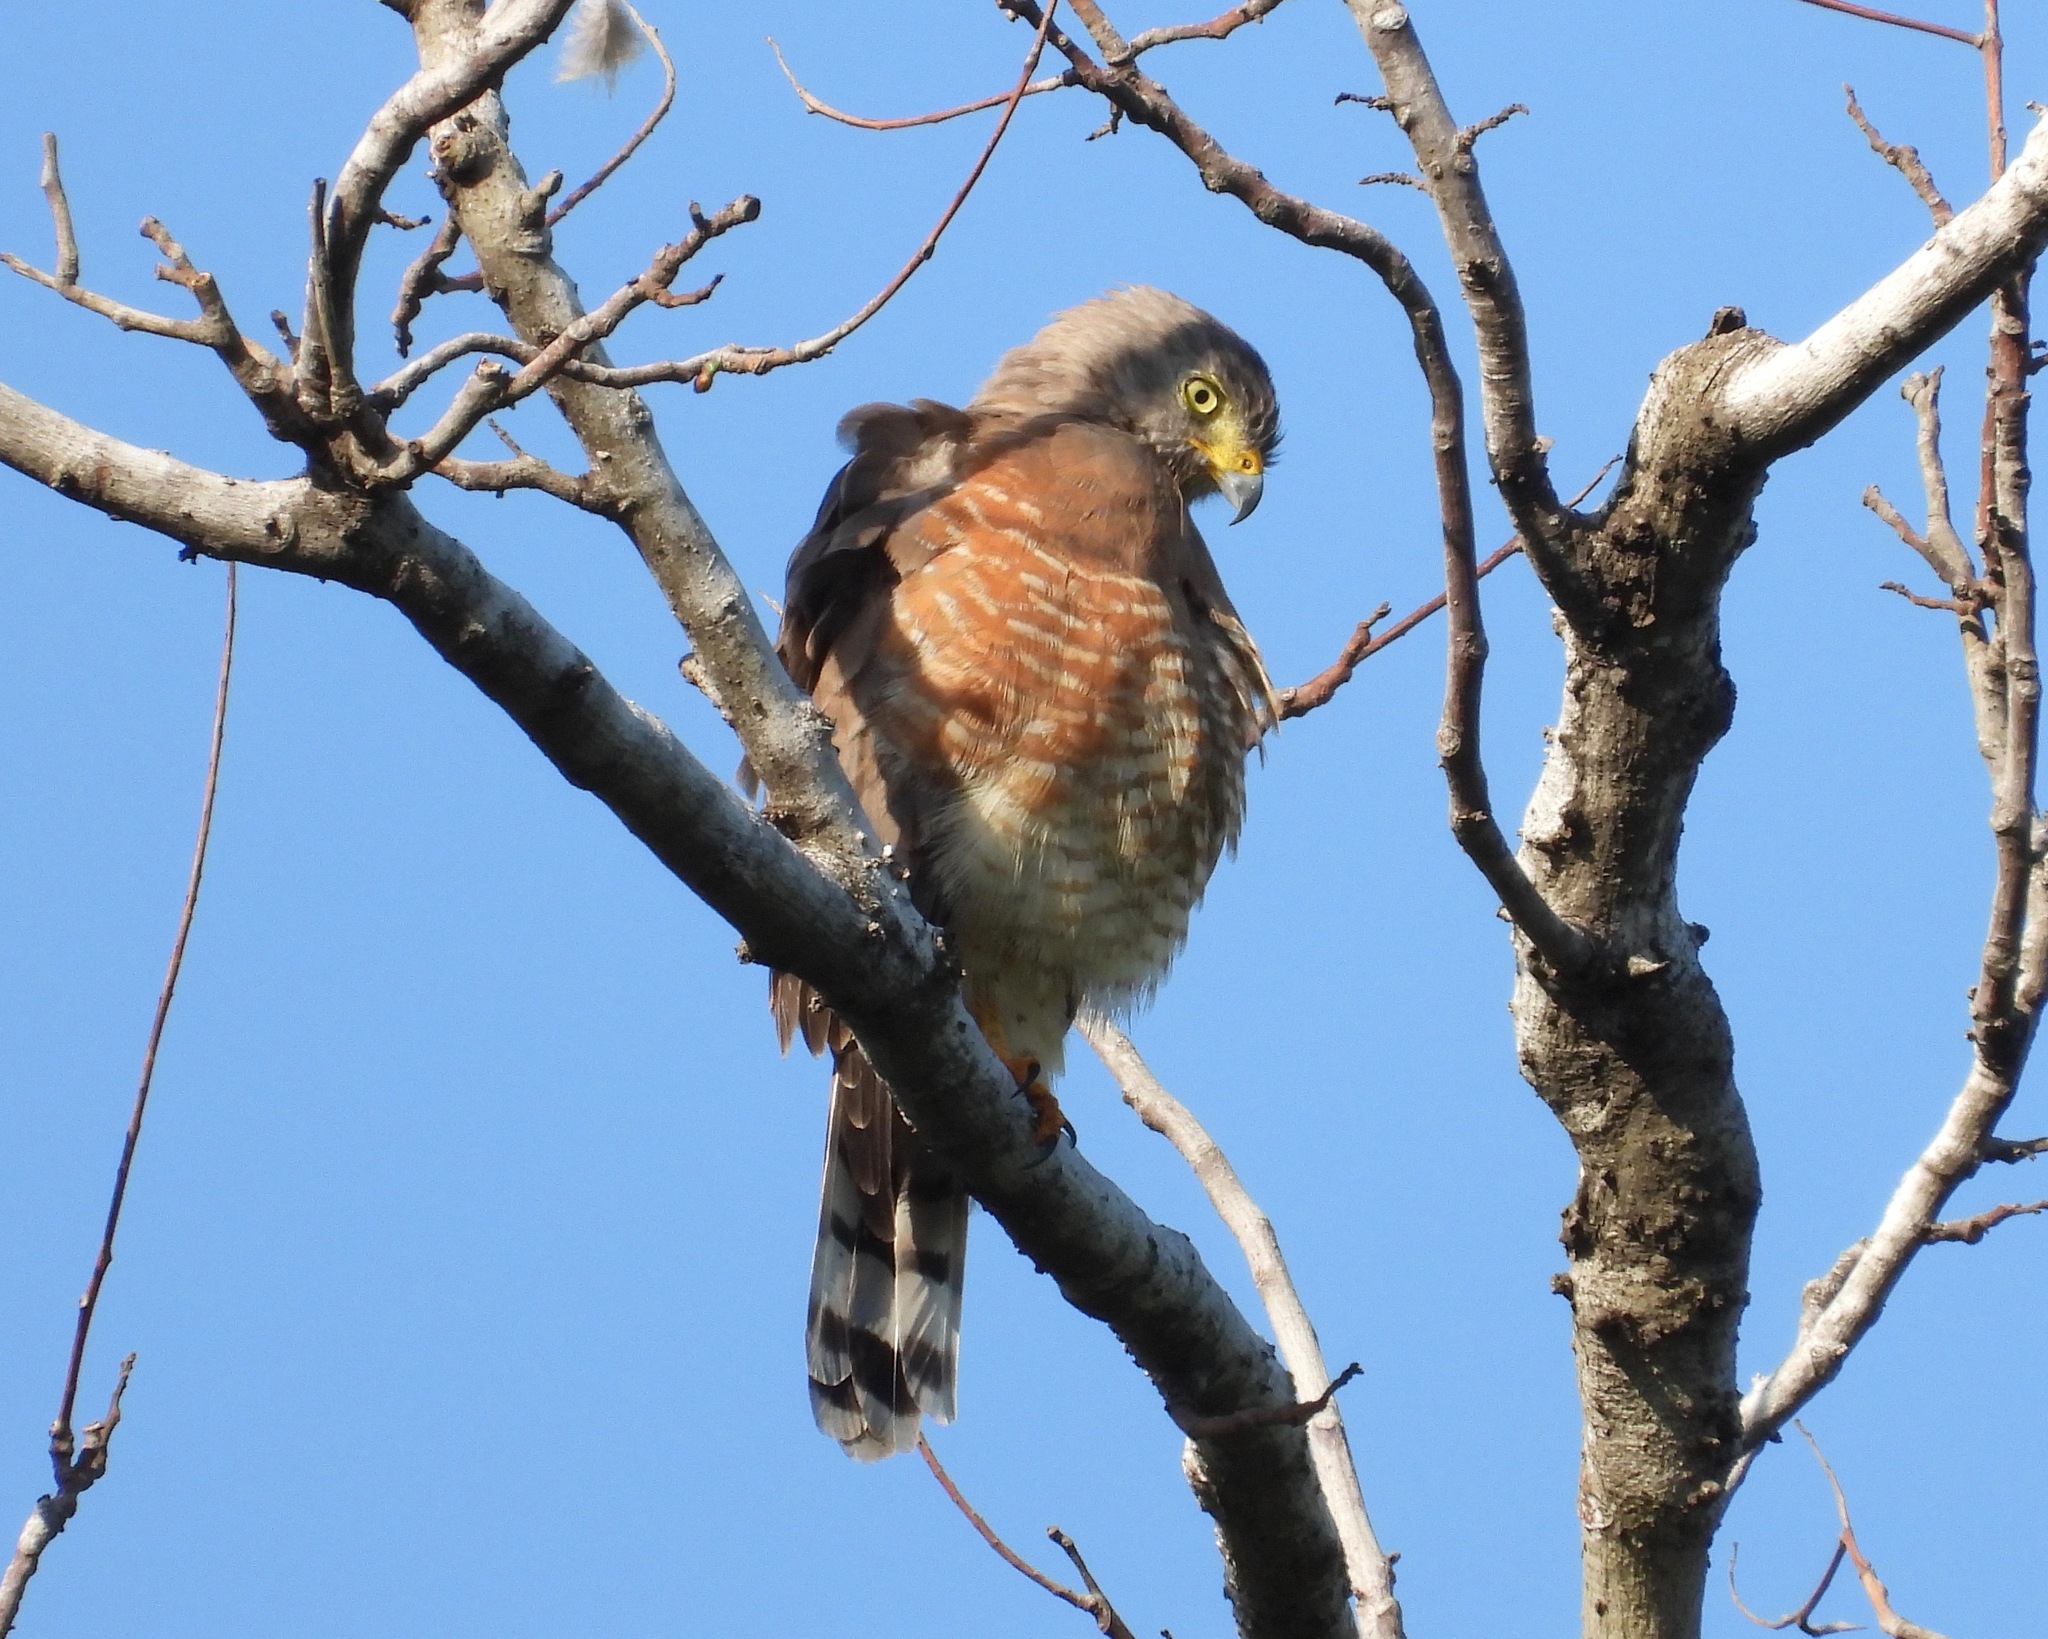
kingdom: Animalia
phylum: Chordata
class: Aves
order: Accipitriformes
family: Accipitridae
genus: Rupornis
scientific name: Rupornis magnirostris
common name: Roadside hawk
